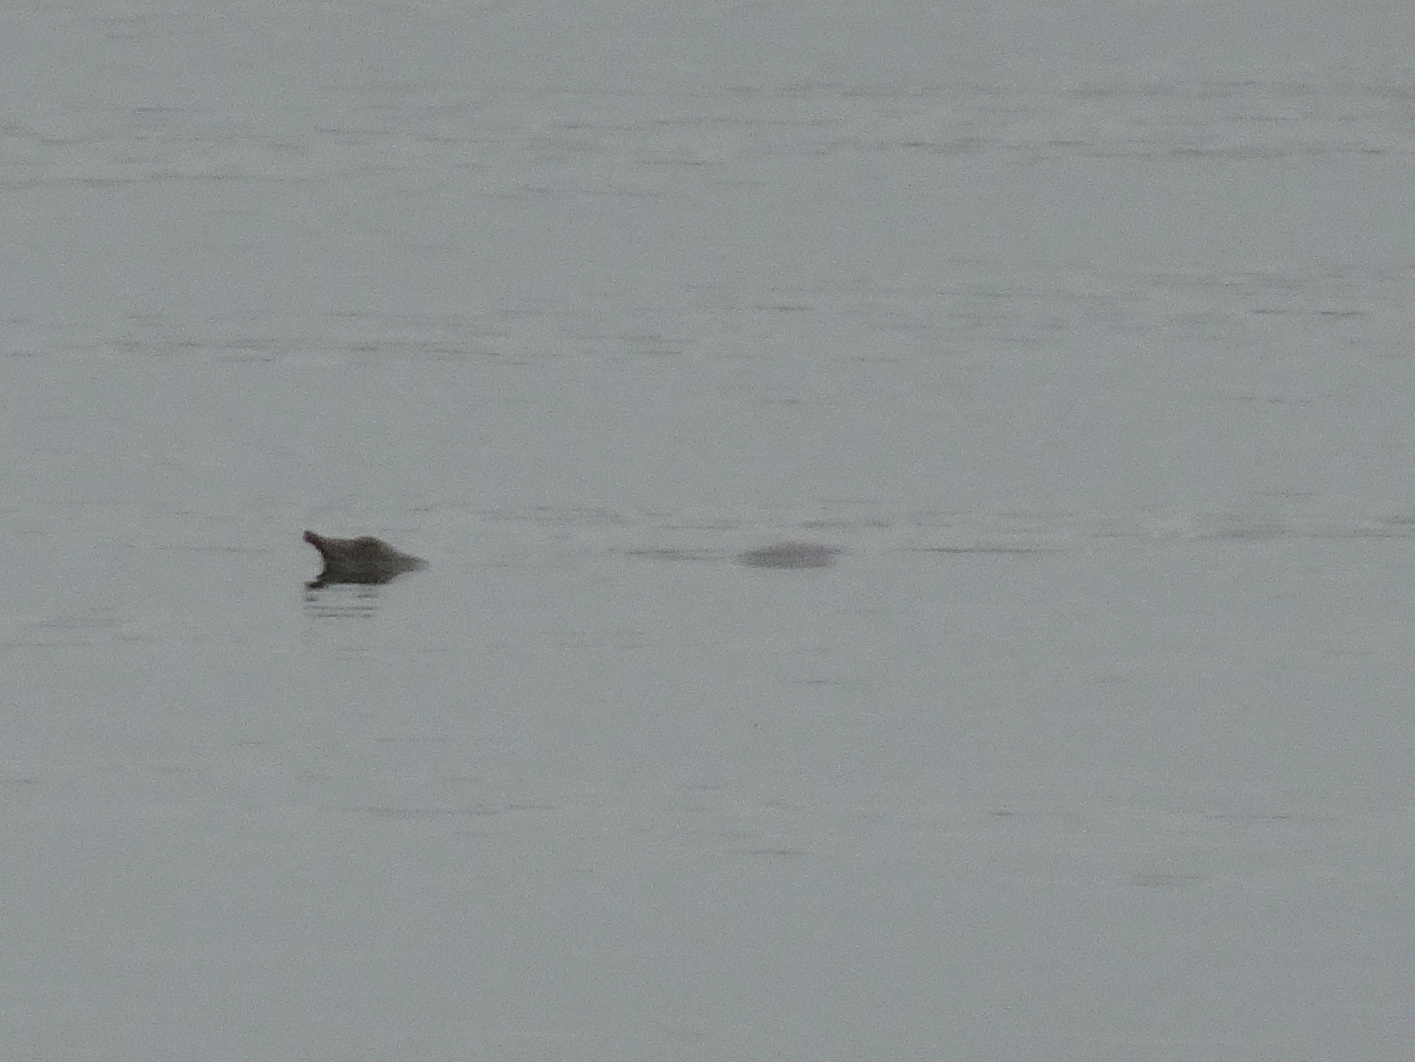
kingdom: Animalia
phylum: Chordata
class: Testudines
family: Trionychidae
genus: Apalone
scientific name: Apalone spinifera
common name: Spiny softshell turtle
